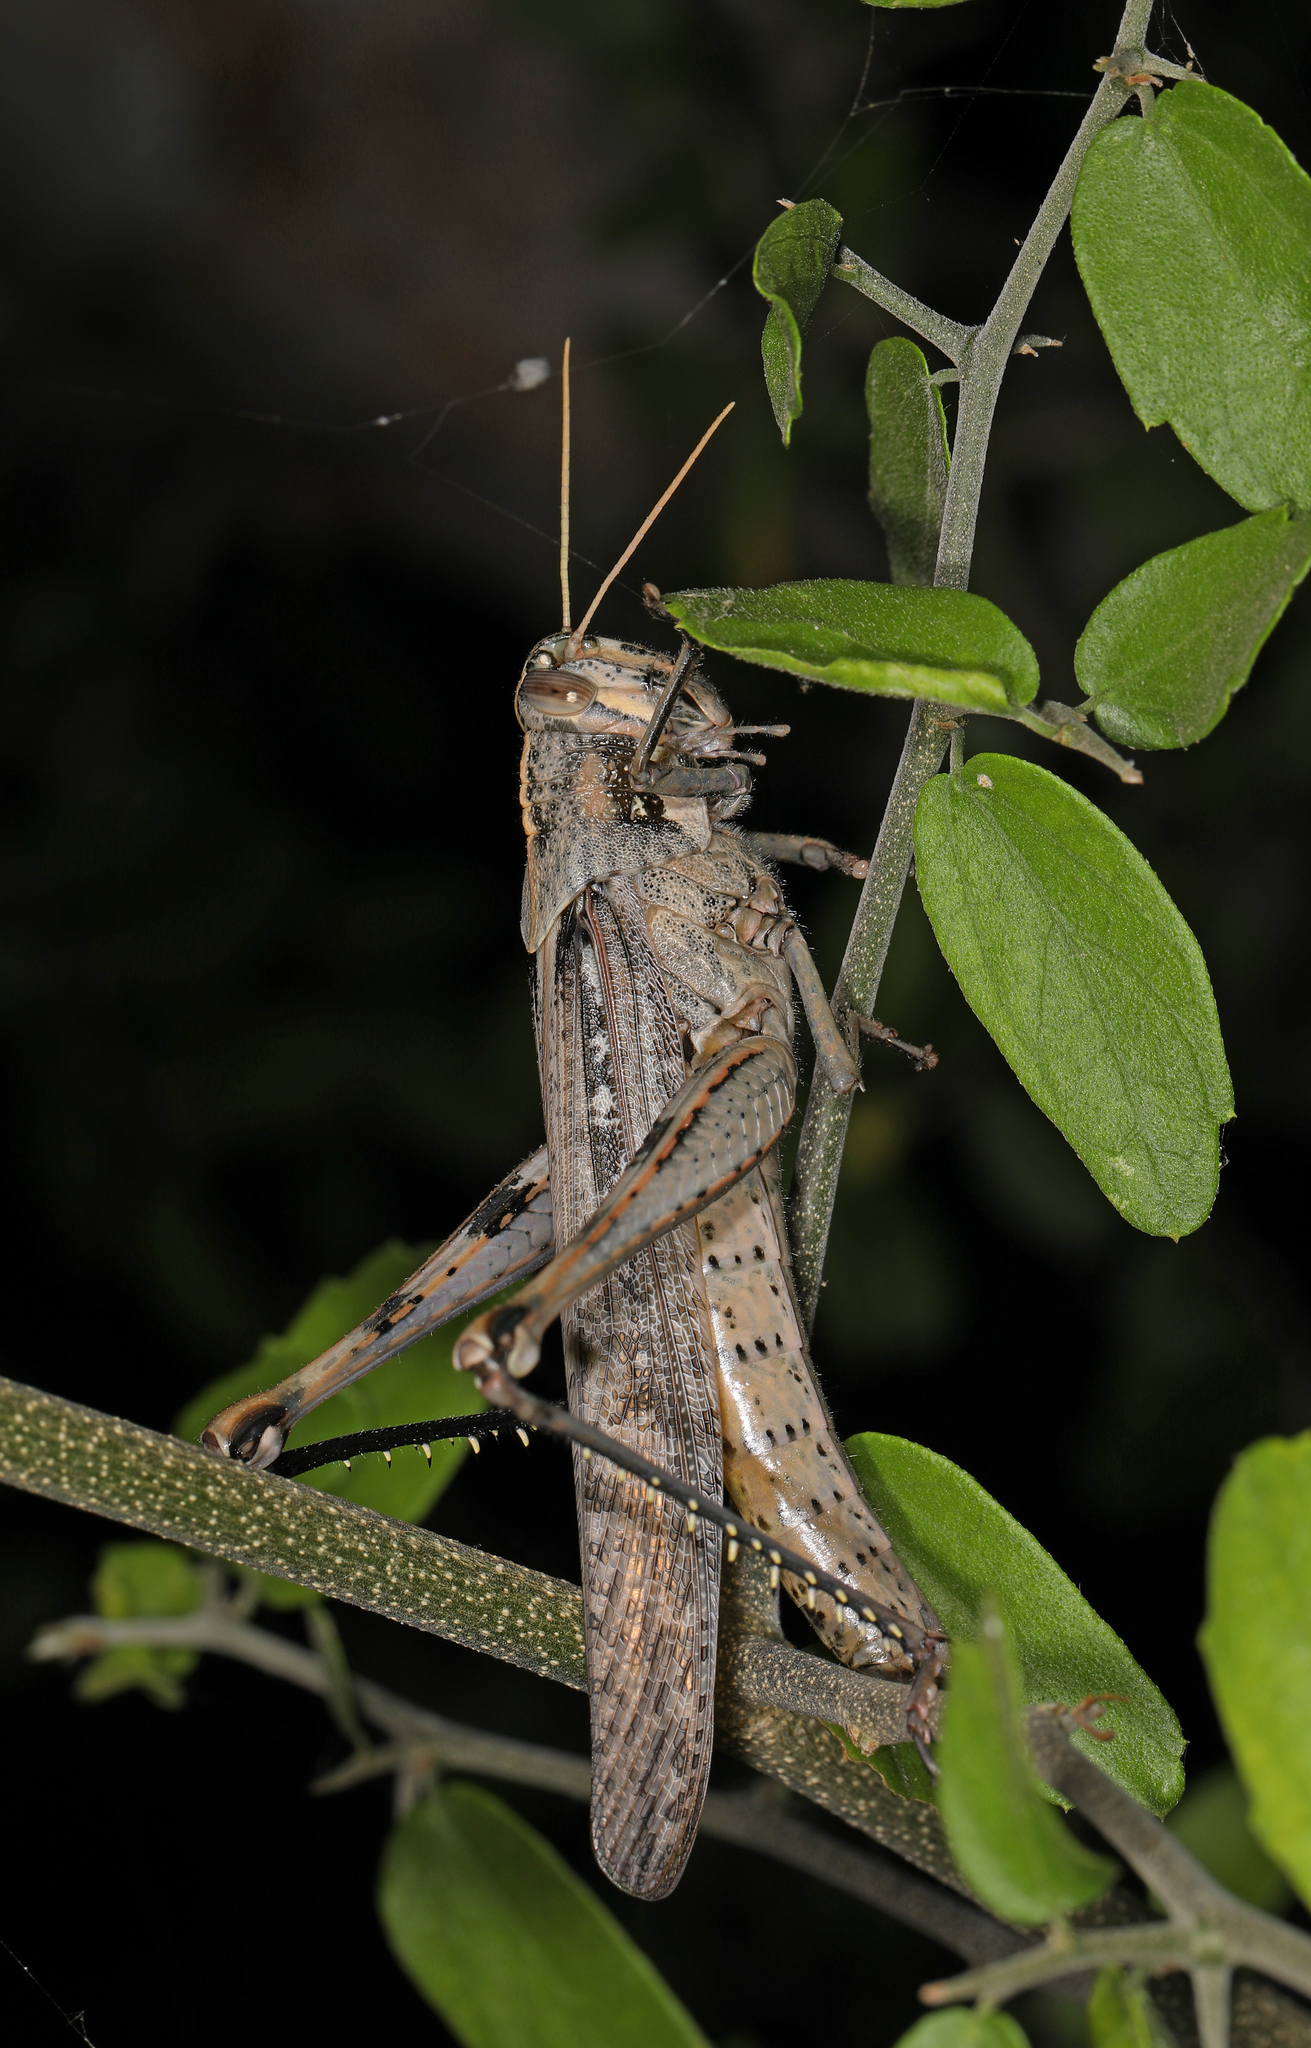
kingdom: Animalia
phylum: Arthropoda
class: Insecta
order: Orthoptera
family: Acrididae
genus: Schistocerca
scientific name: Schistocerca nitens
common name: Vagrant grasshopper
